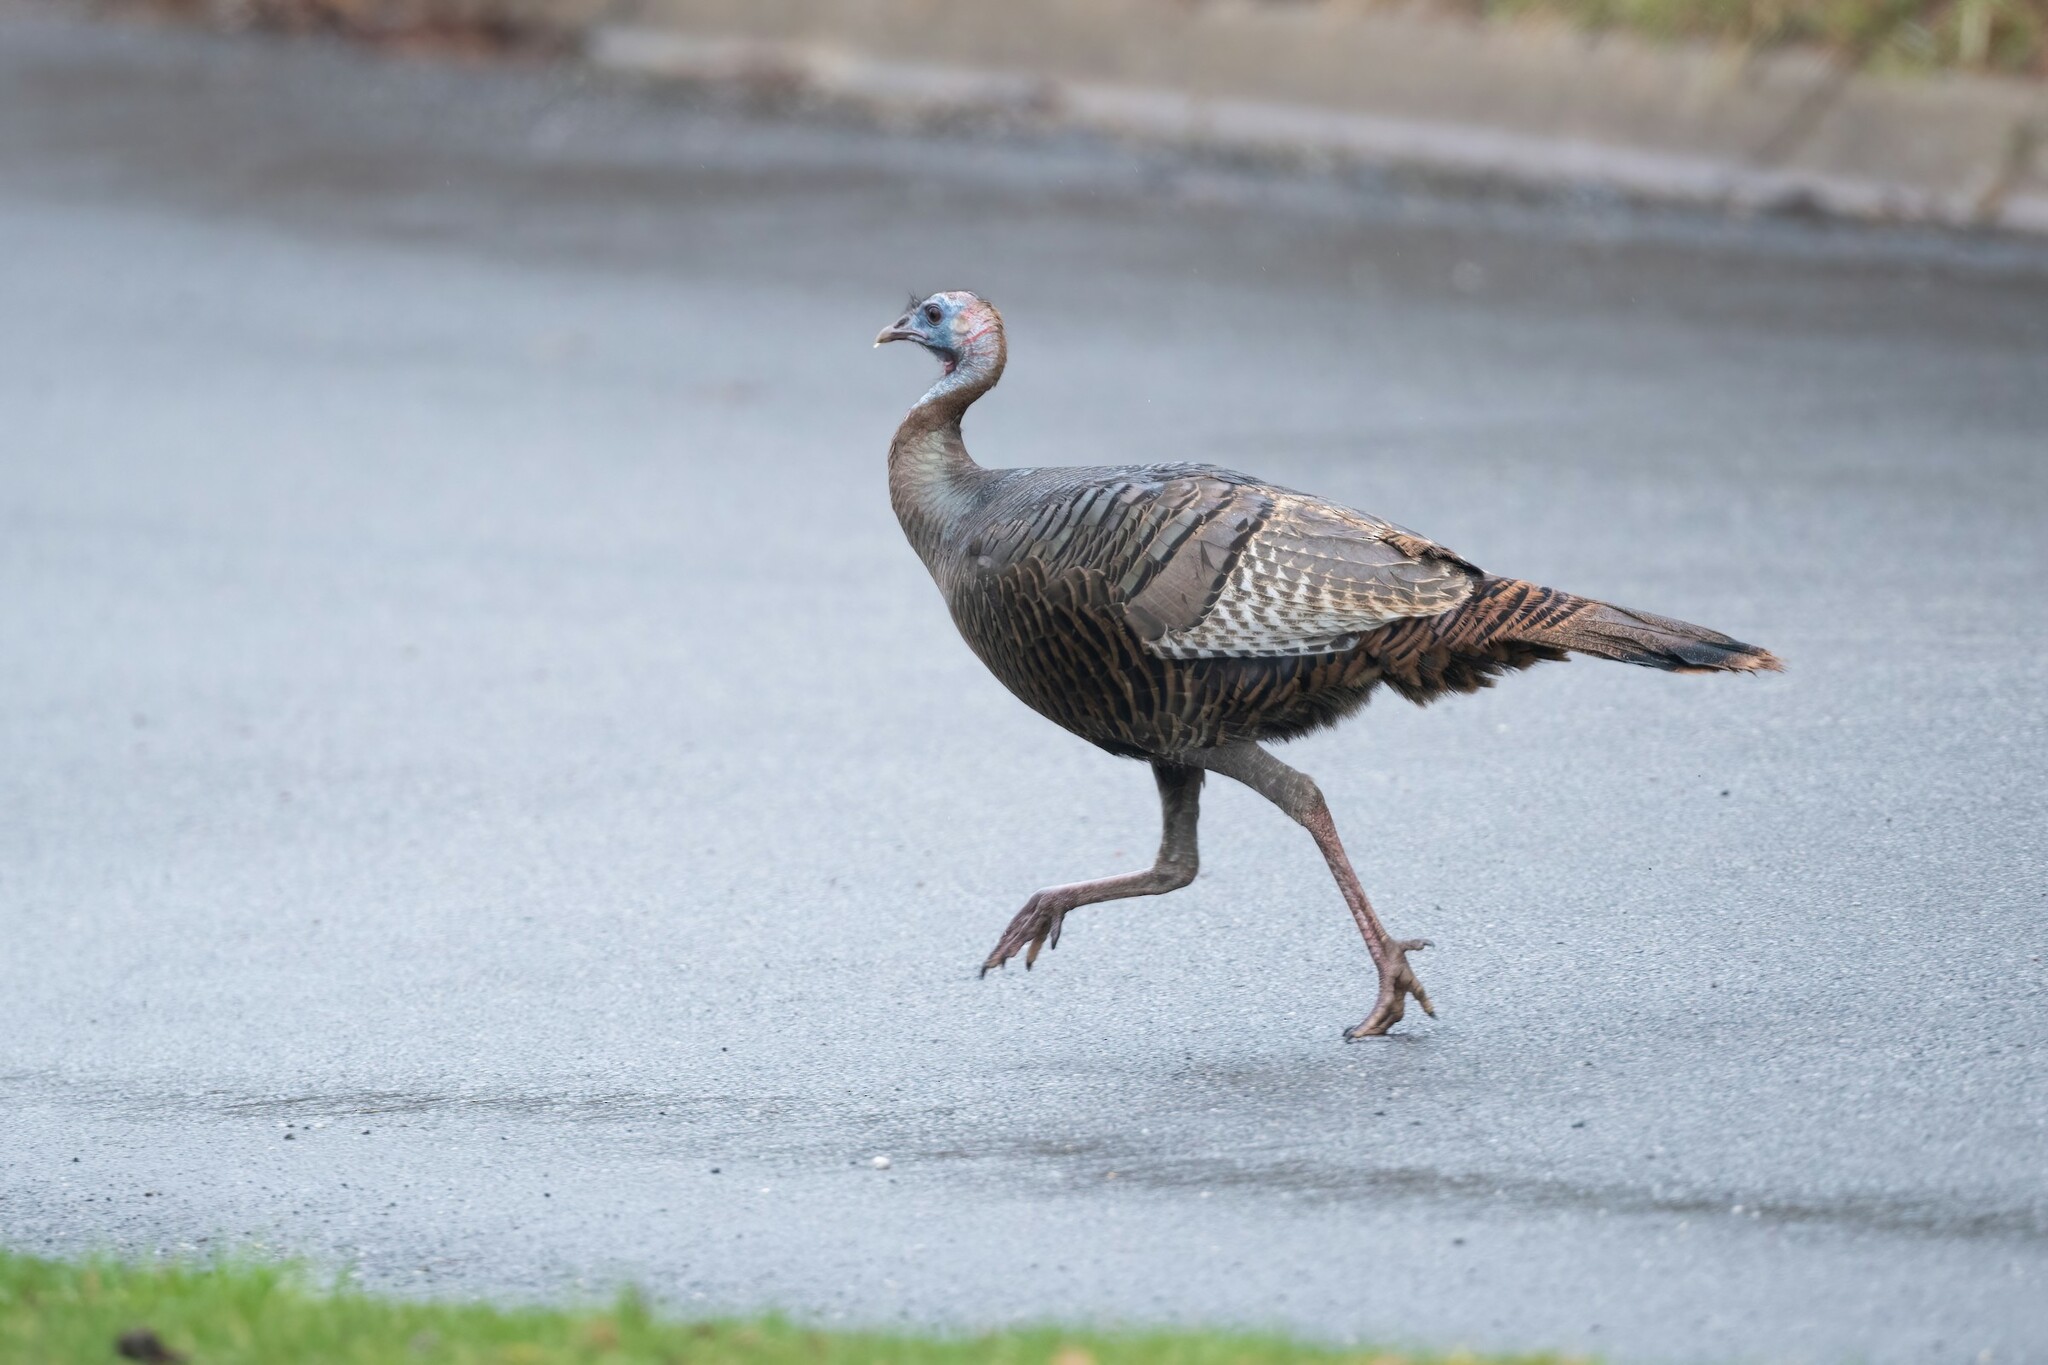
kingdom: Animalia
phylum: Chordata
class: Aves
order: Galliformes
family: Phasianidae
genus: Meleagris
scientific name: Meleagris gallopavo
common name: Wild turkey
